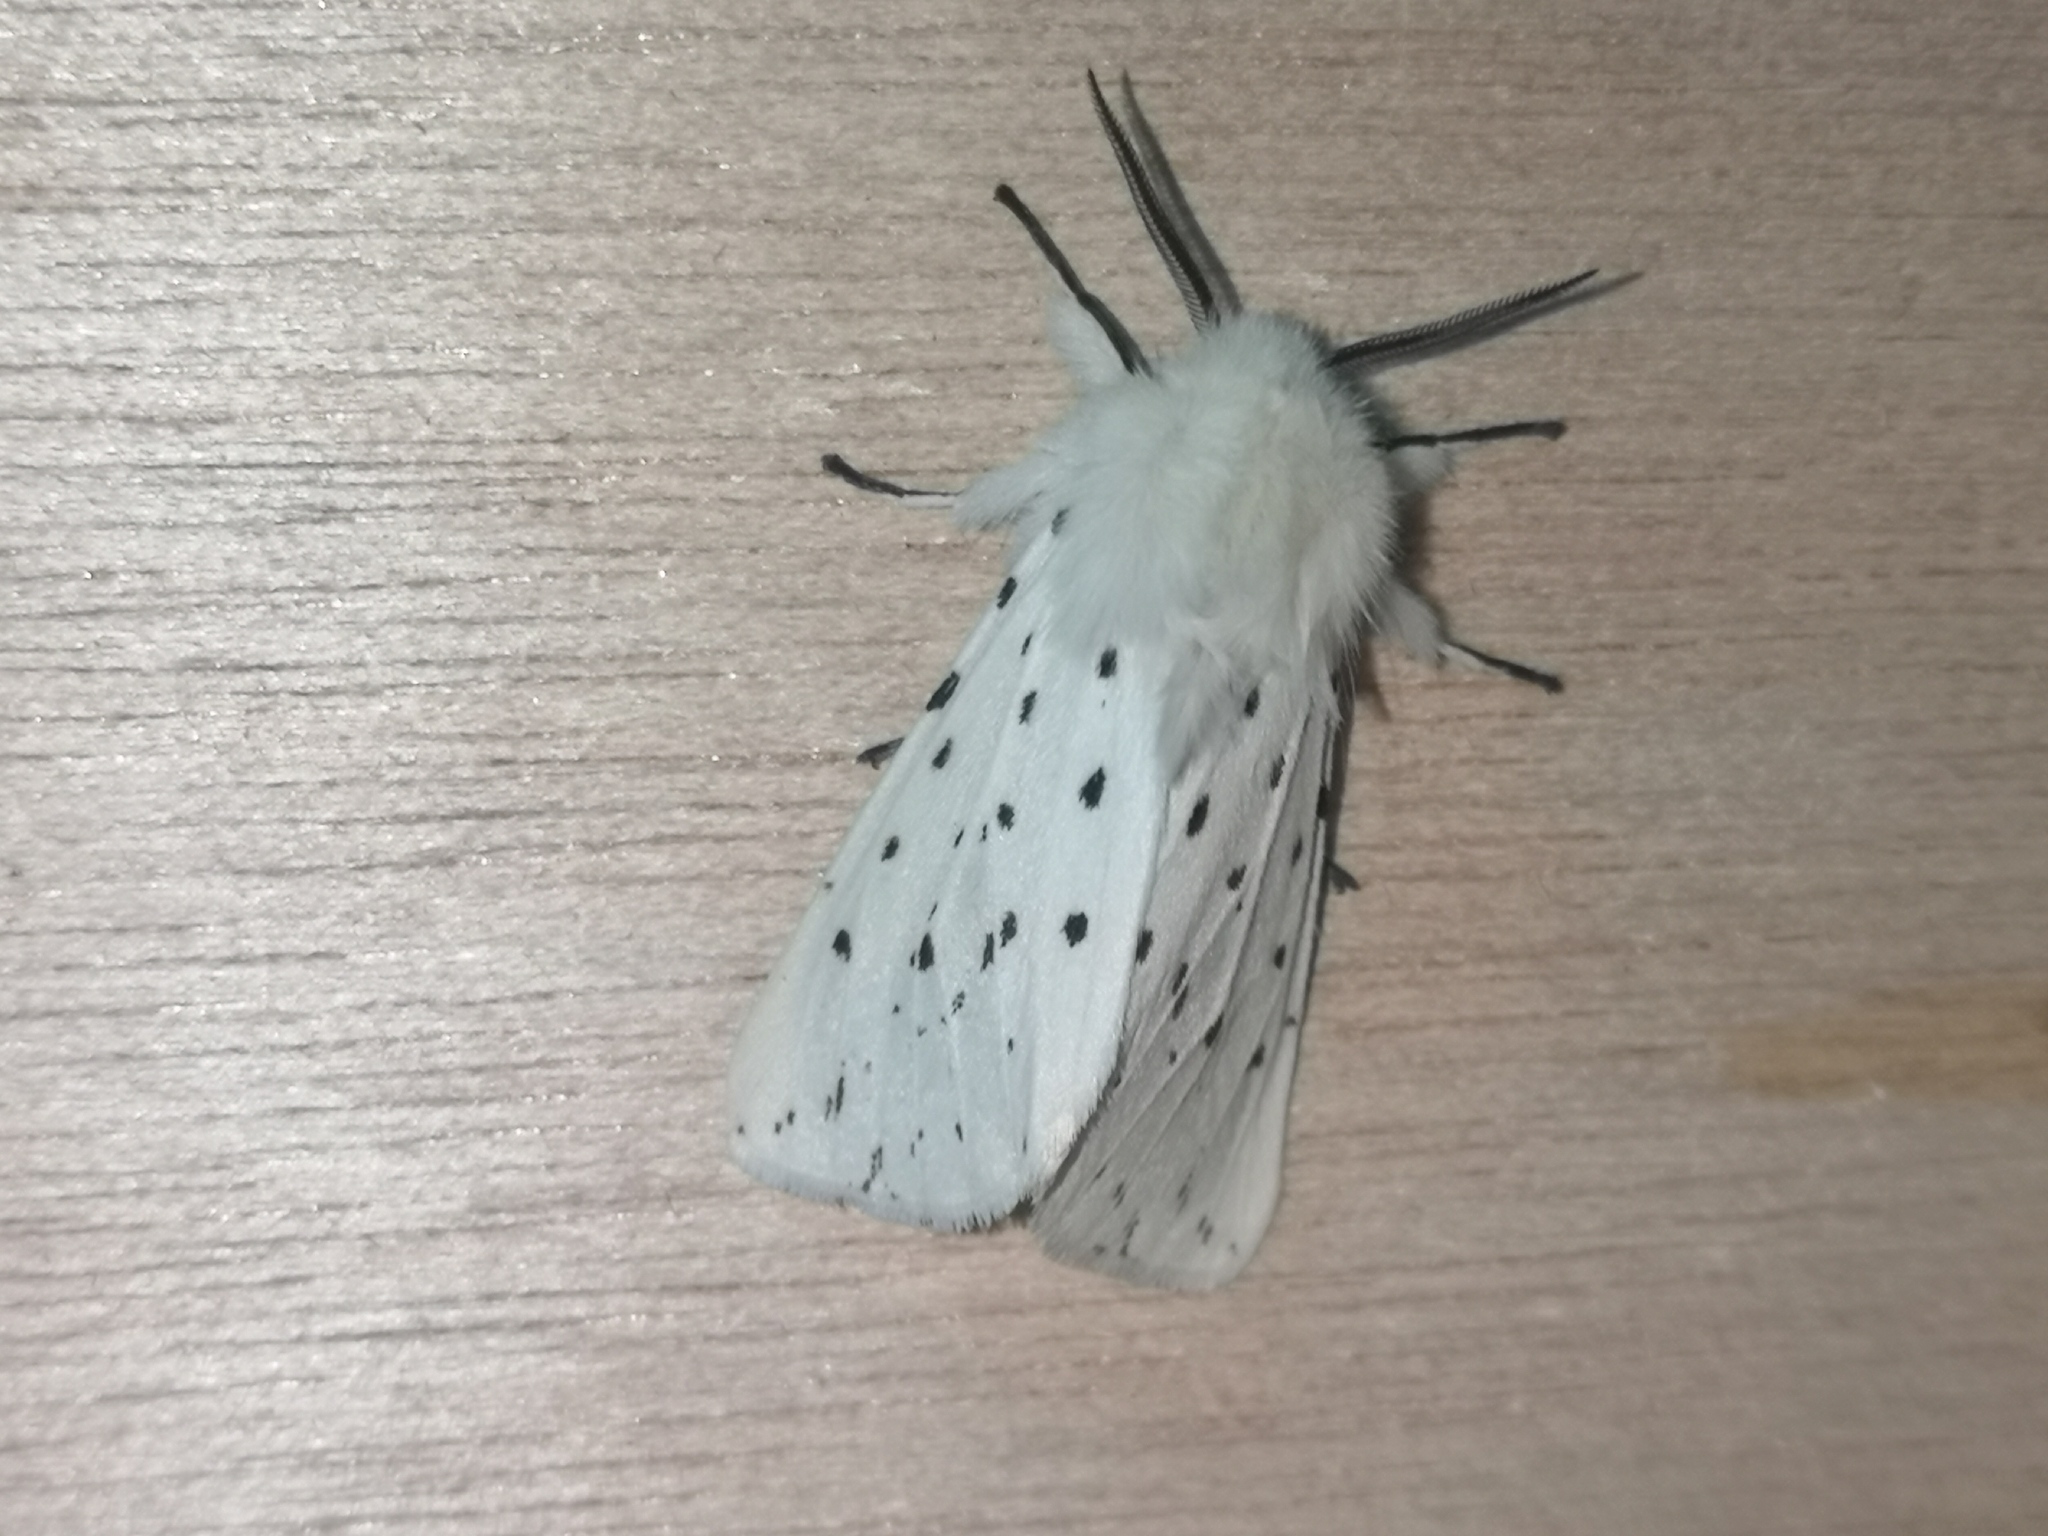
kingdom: Animalia
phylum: Arthropoda
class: Insecta
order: Lepidoptera
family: Erebidae
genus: Spilosoma
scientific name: Spilosoma lubricipeda
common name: White ermine
